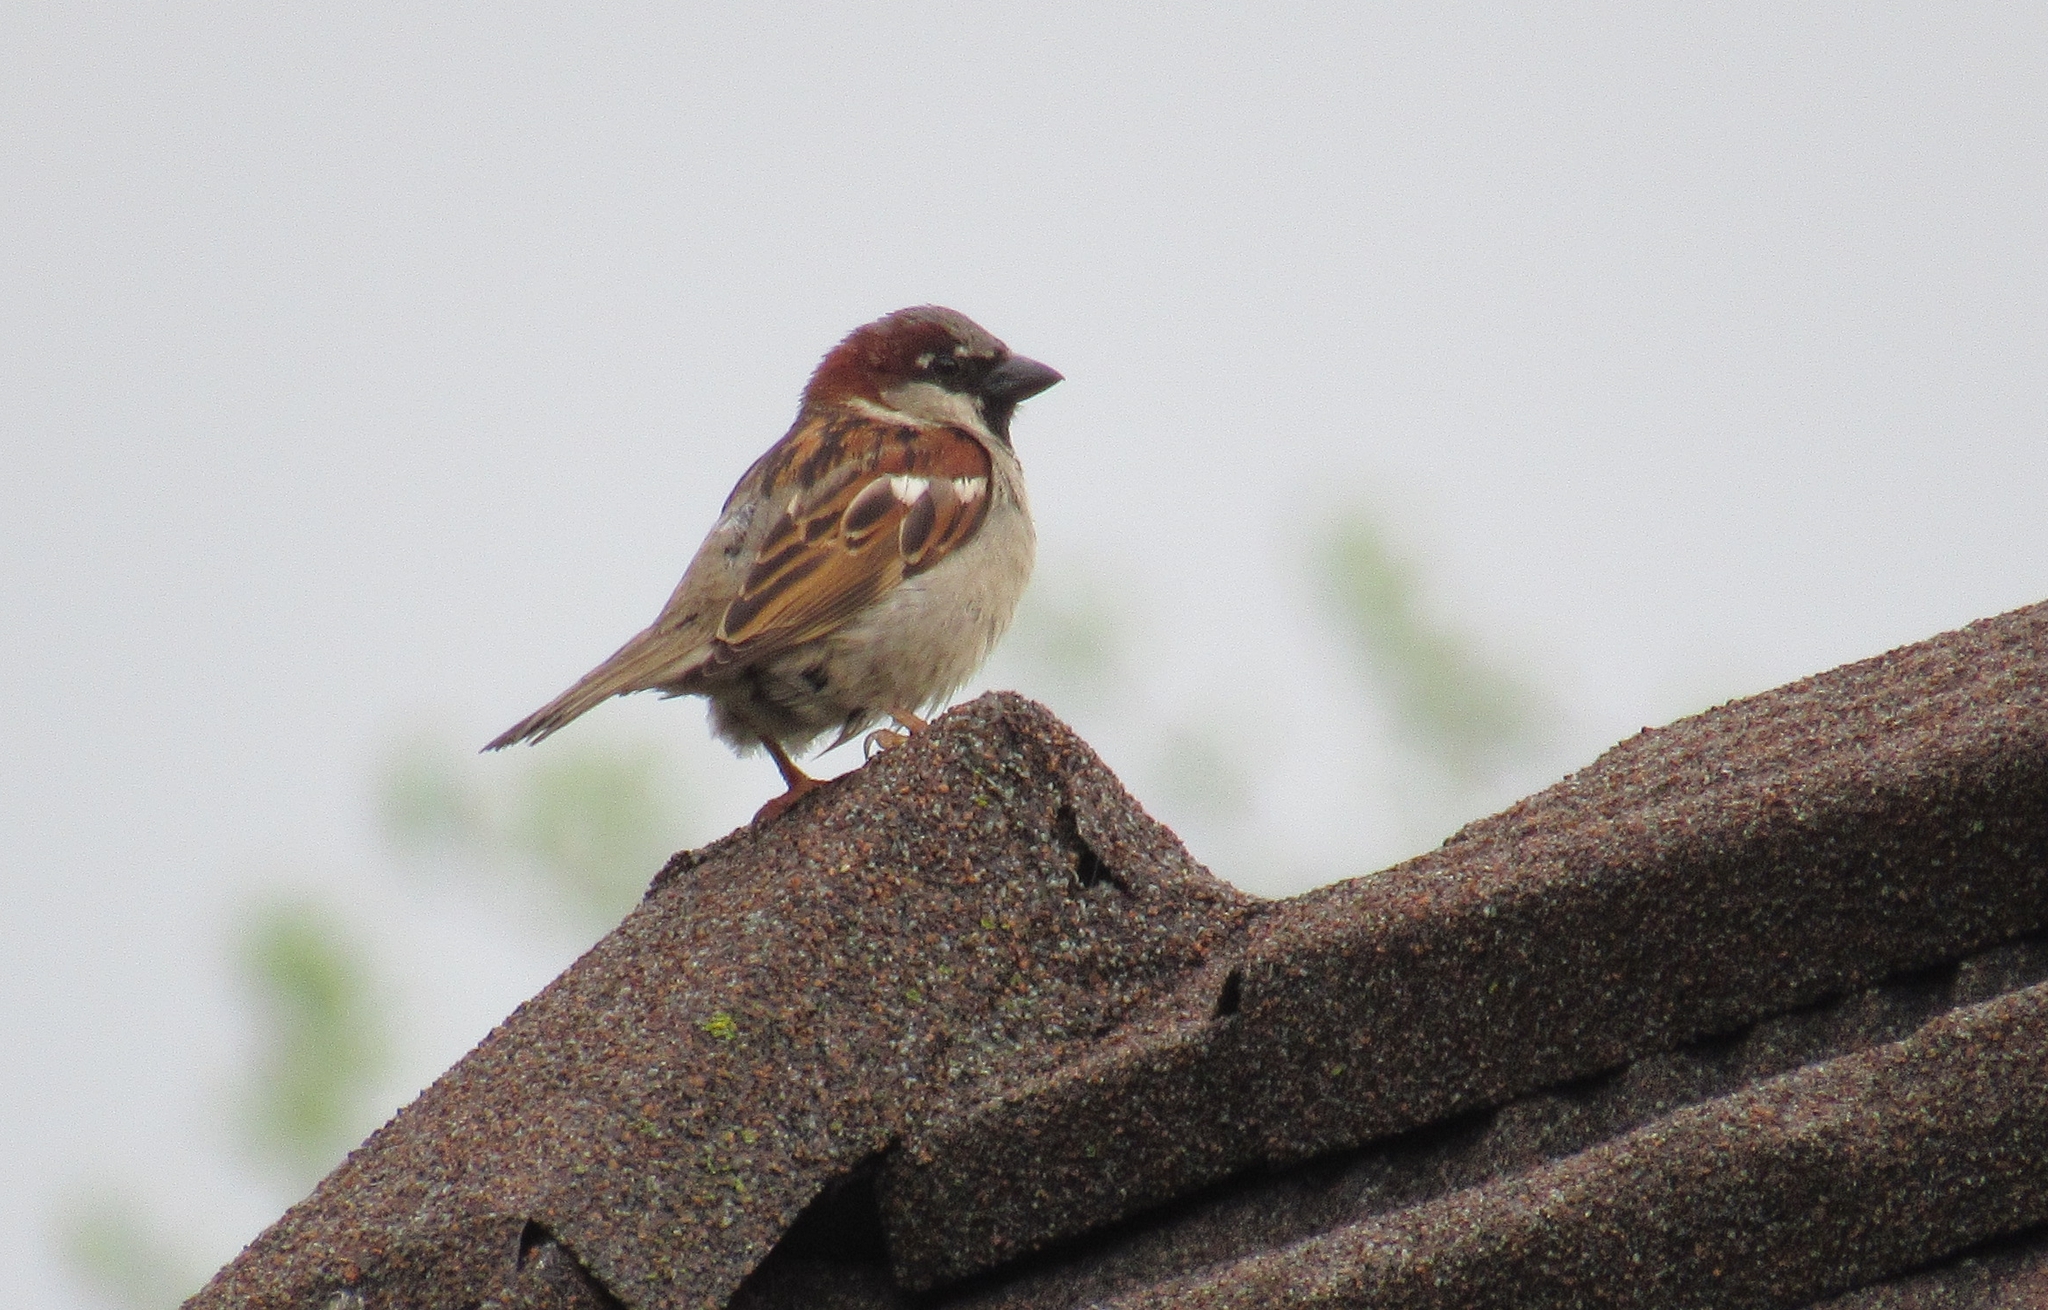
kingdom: Animalia
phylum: Chordata
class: Aves
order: Passeriformes
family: Passeridae
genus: Passer
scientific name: Passer domesticus
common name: House sparrow
